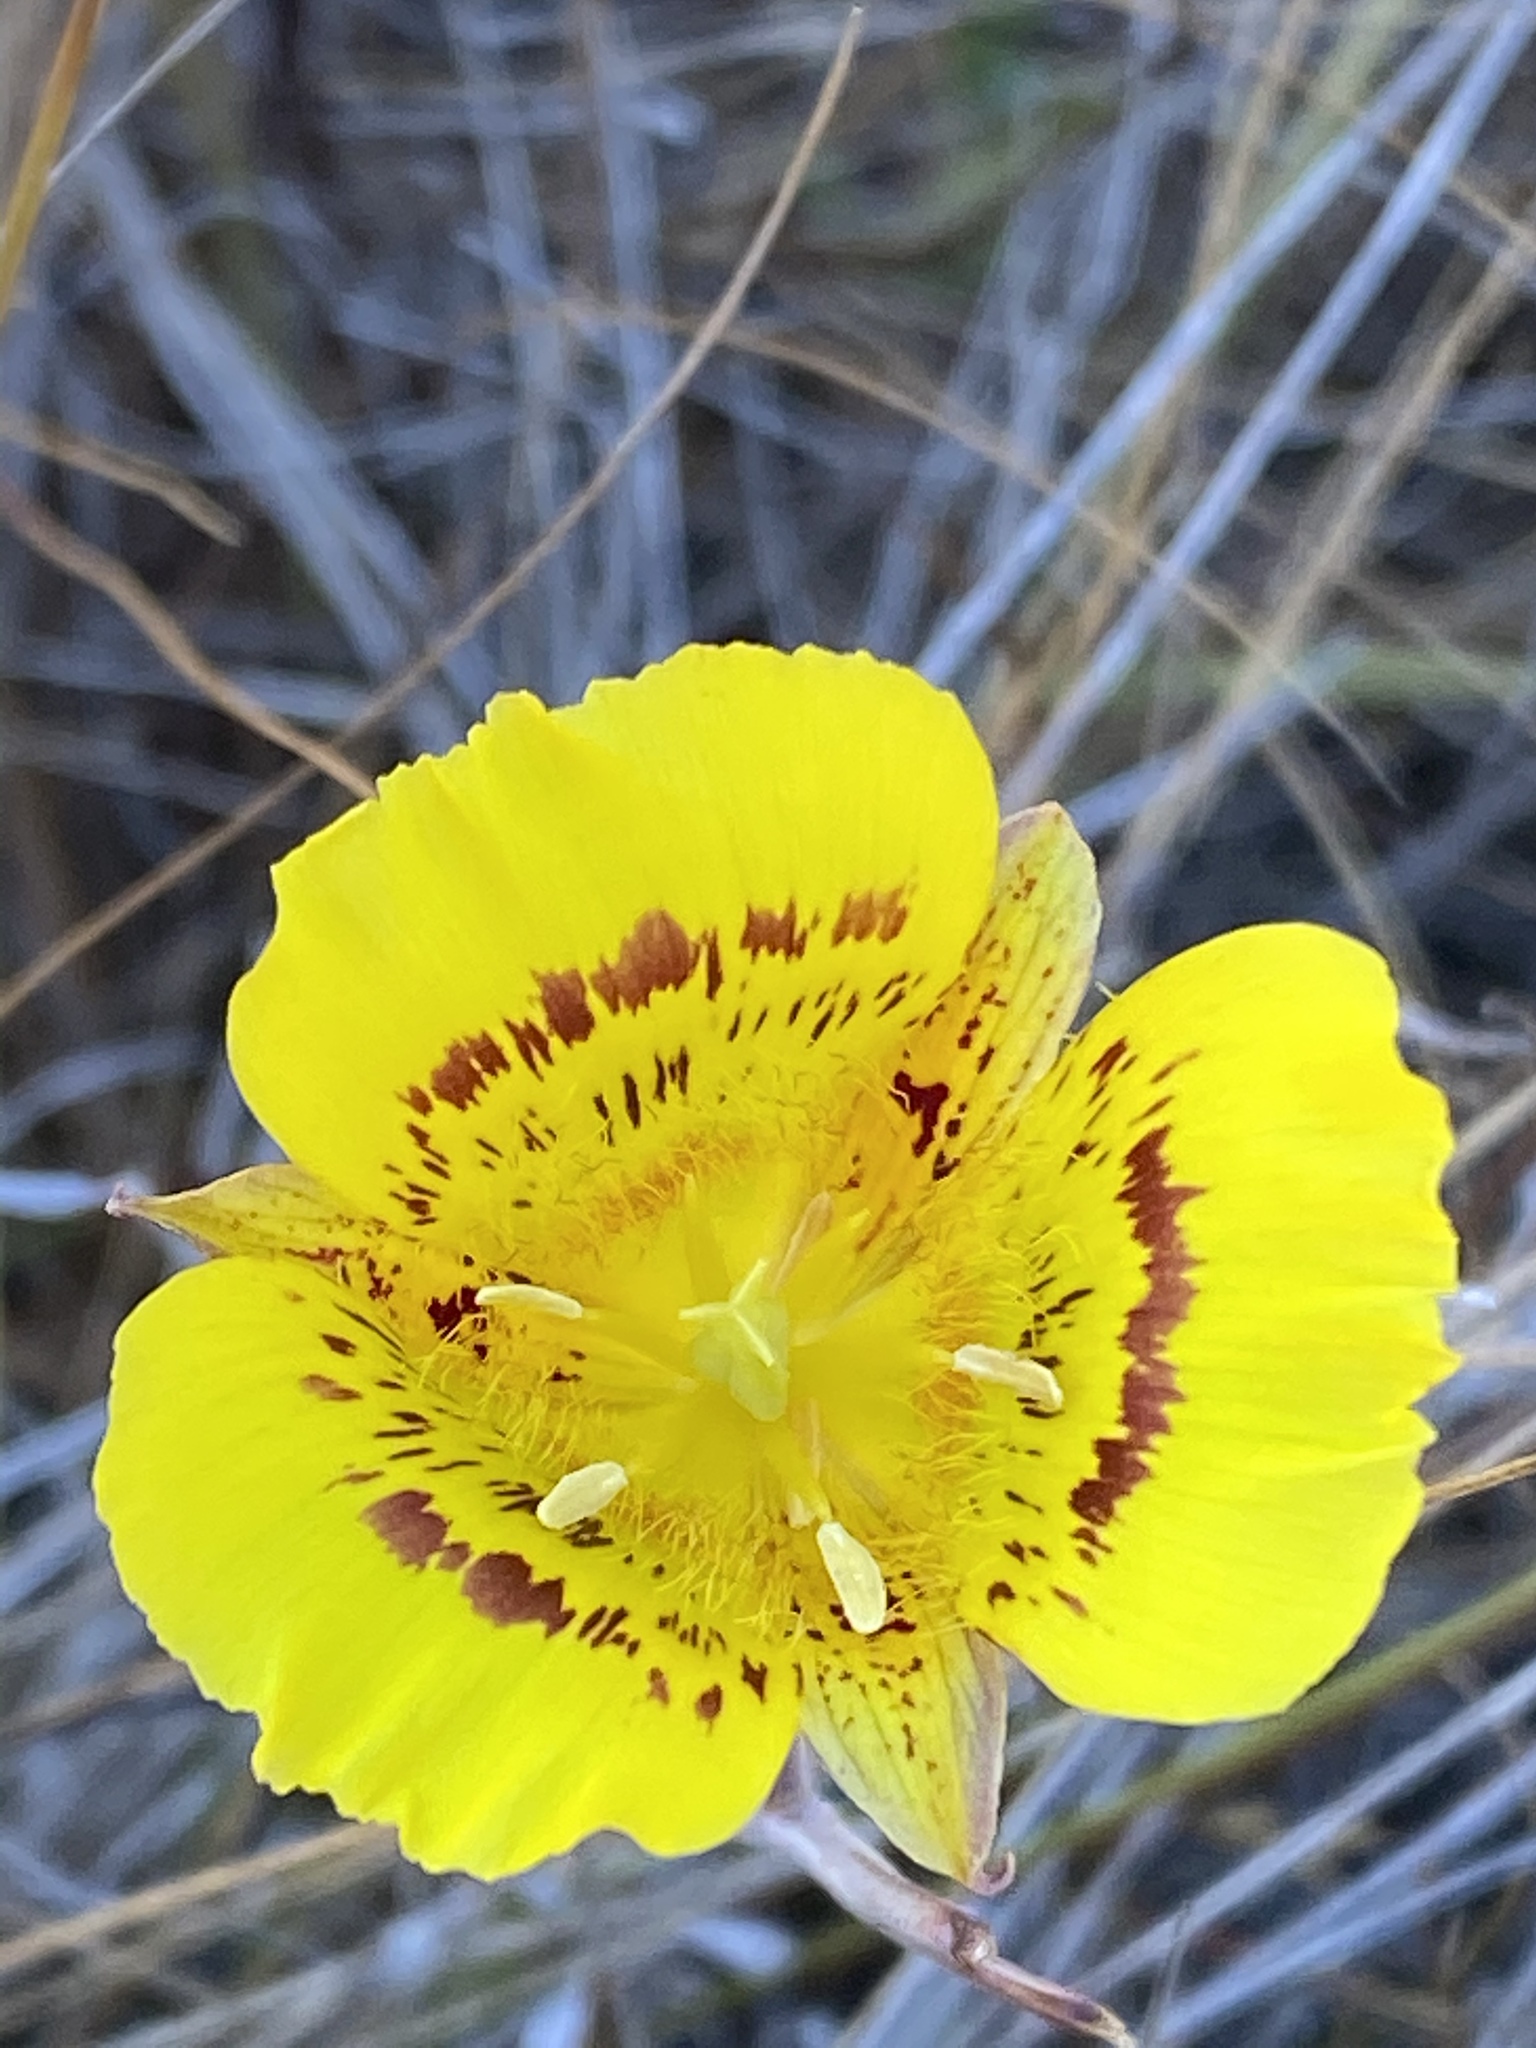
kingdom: Plantae
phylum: Tracheophyta
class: Liliopsida
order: Liliales
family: Liliaceae
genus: Calochortus
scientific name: Calochortus luteus
